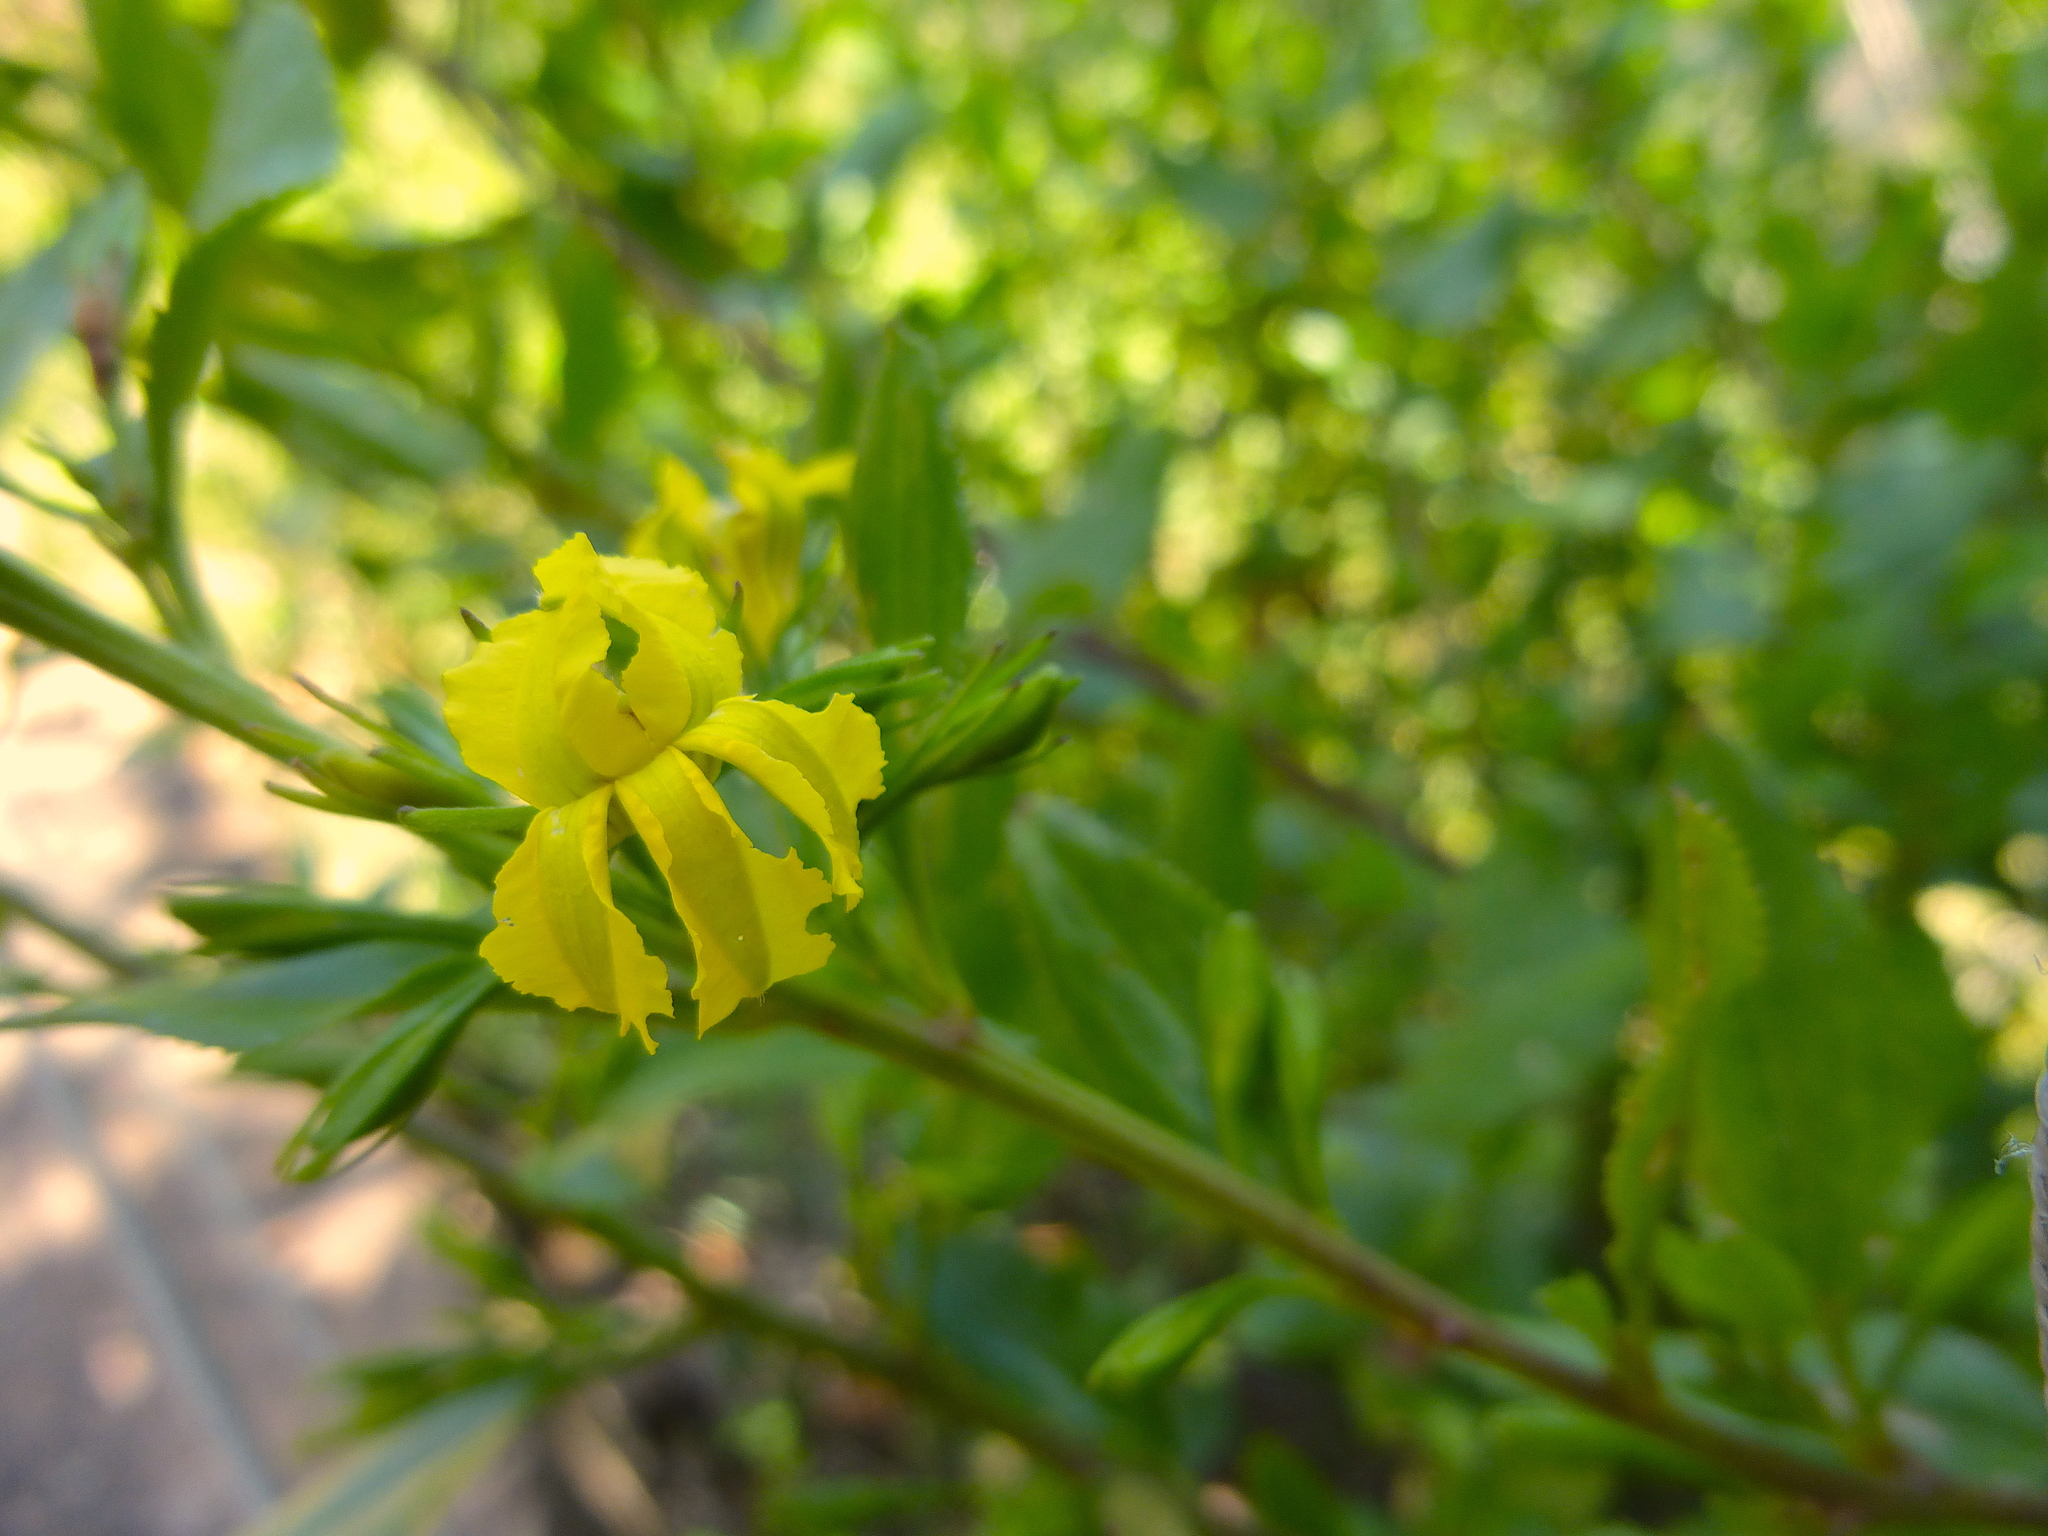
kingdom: Plantae
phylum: Tracheophyta
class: Magnoliopsida
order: Asterales
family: Goodeniaceae
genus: Goodenia
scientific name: Goodenia ovata
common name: Hop goodenia
